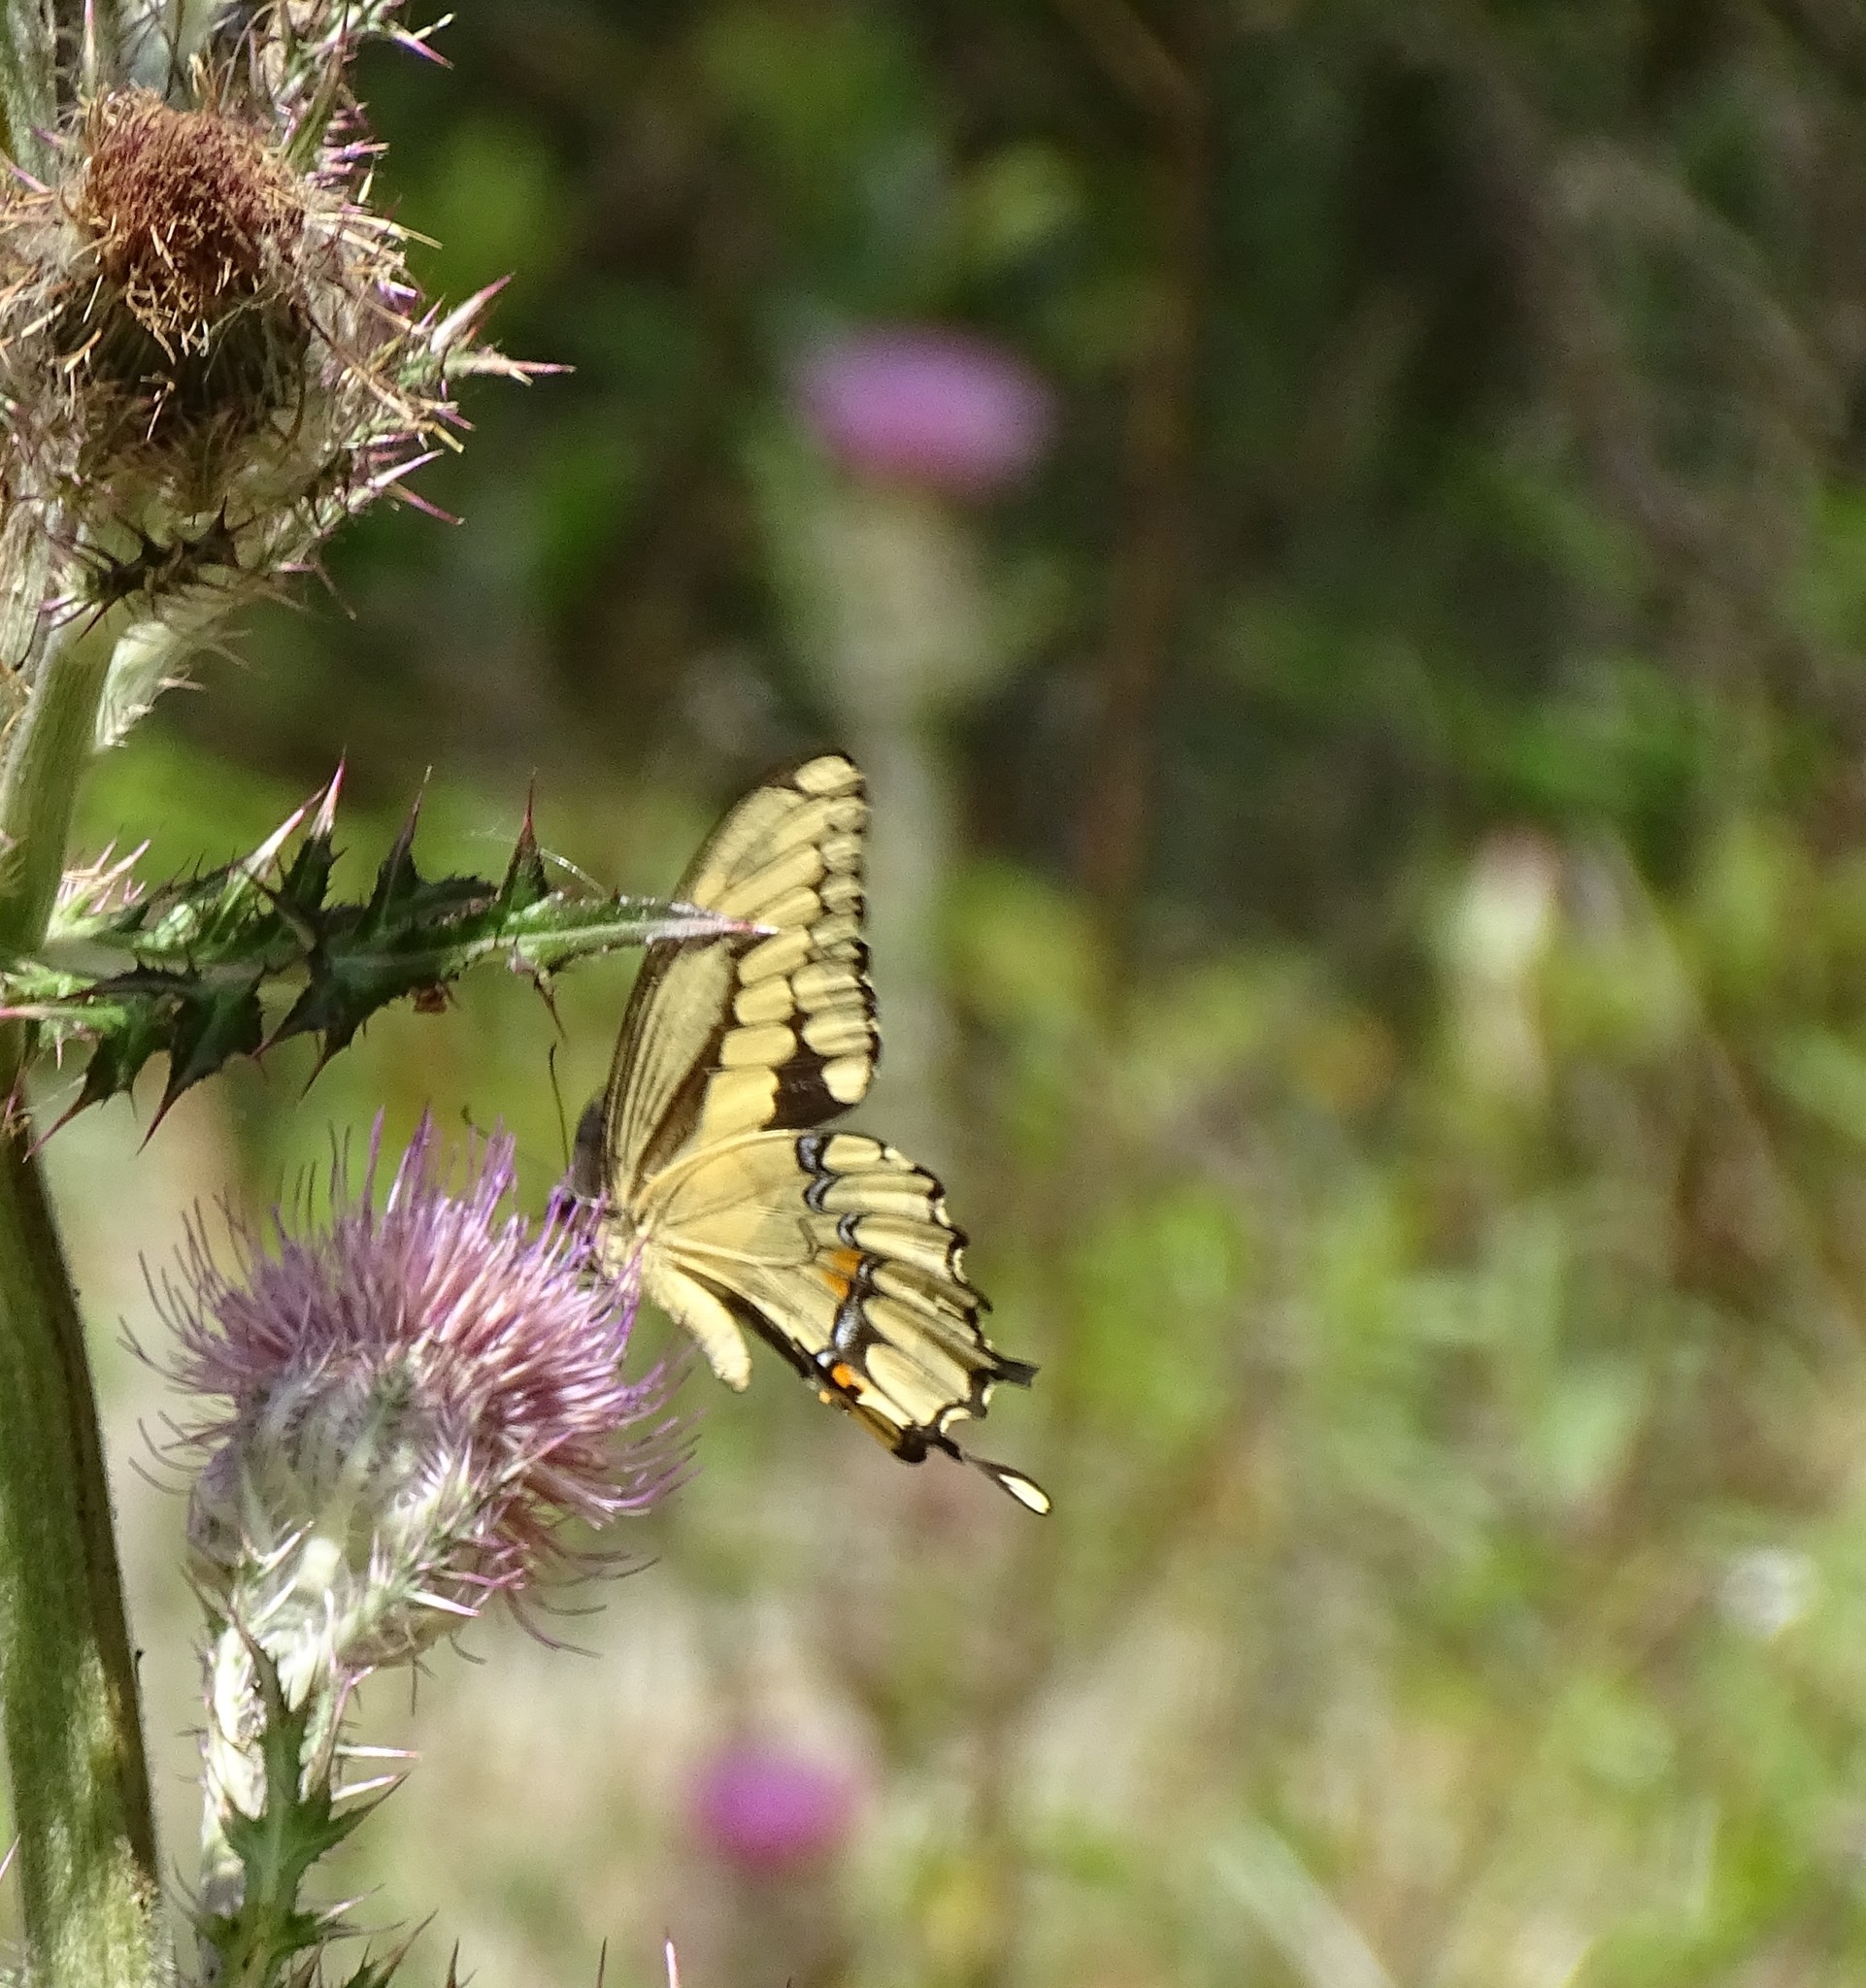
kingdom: Animalia
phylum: Arthropoda
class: Insecta
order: Lepidoptera
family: Papilionidae
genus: Papilio
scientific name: Papilio cresphontes
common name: Giant swallowtail
